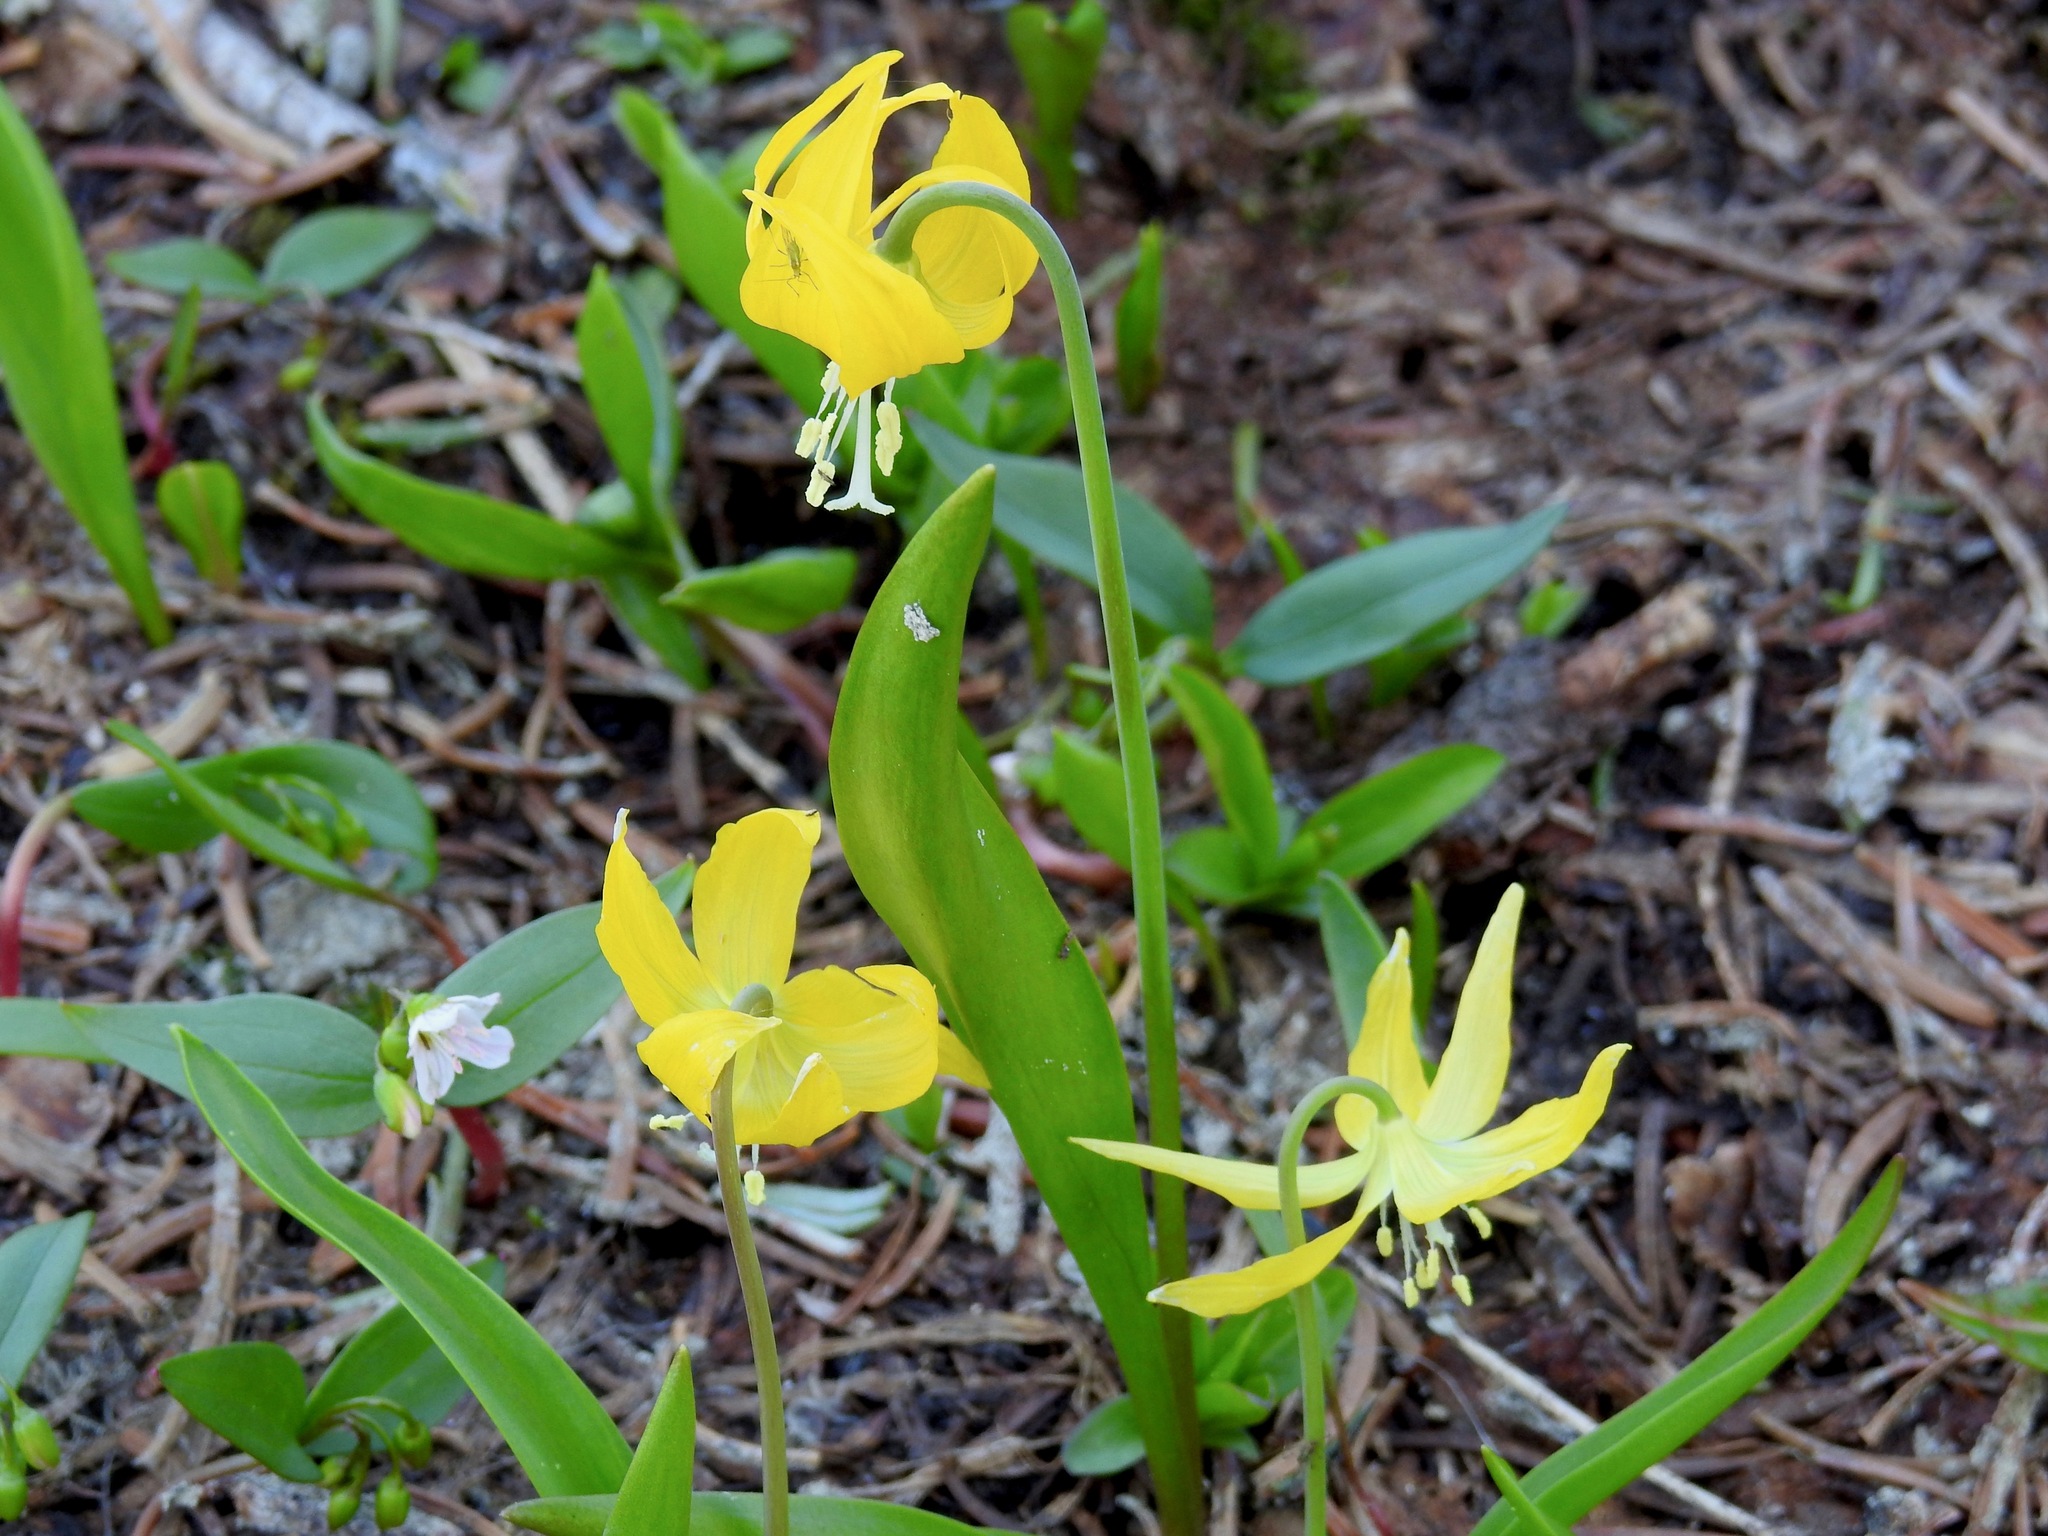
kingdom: Plantae
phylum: Tracheophyta
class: Liliopsida
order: Liliales
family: Liliaceae
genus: Erythronium
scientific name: Erythronium grandiflorum
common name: Avalanche-lily
